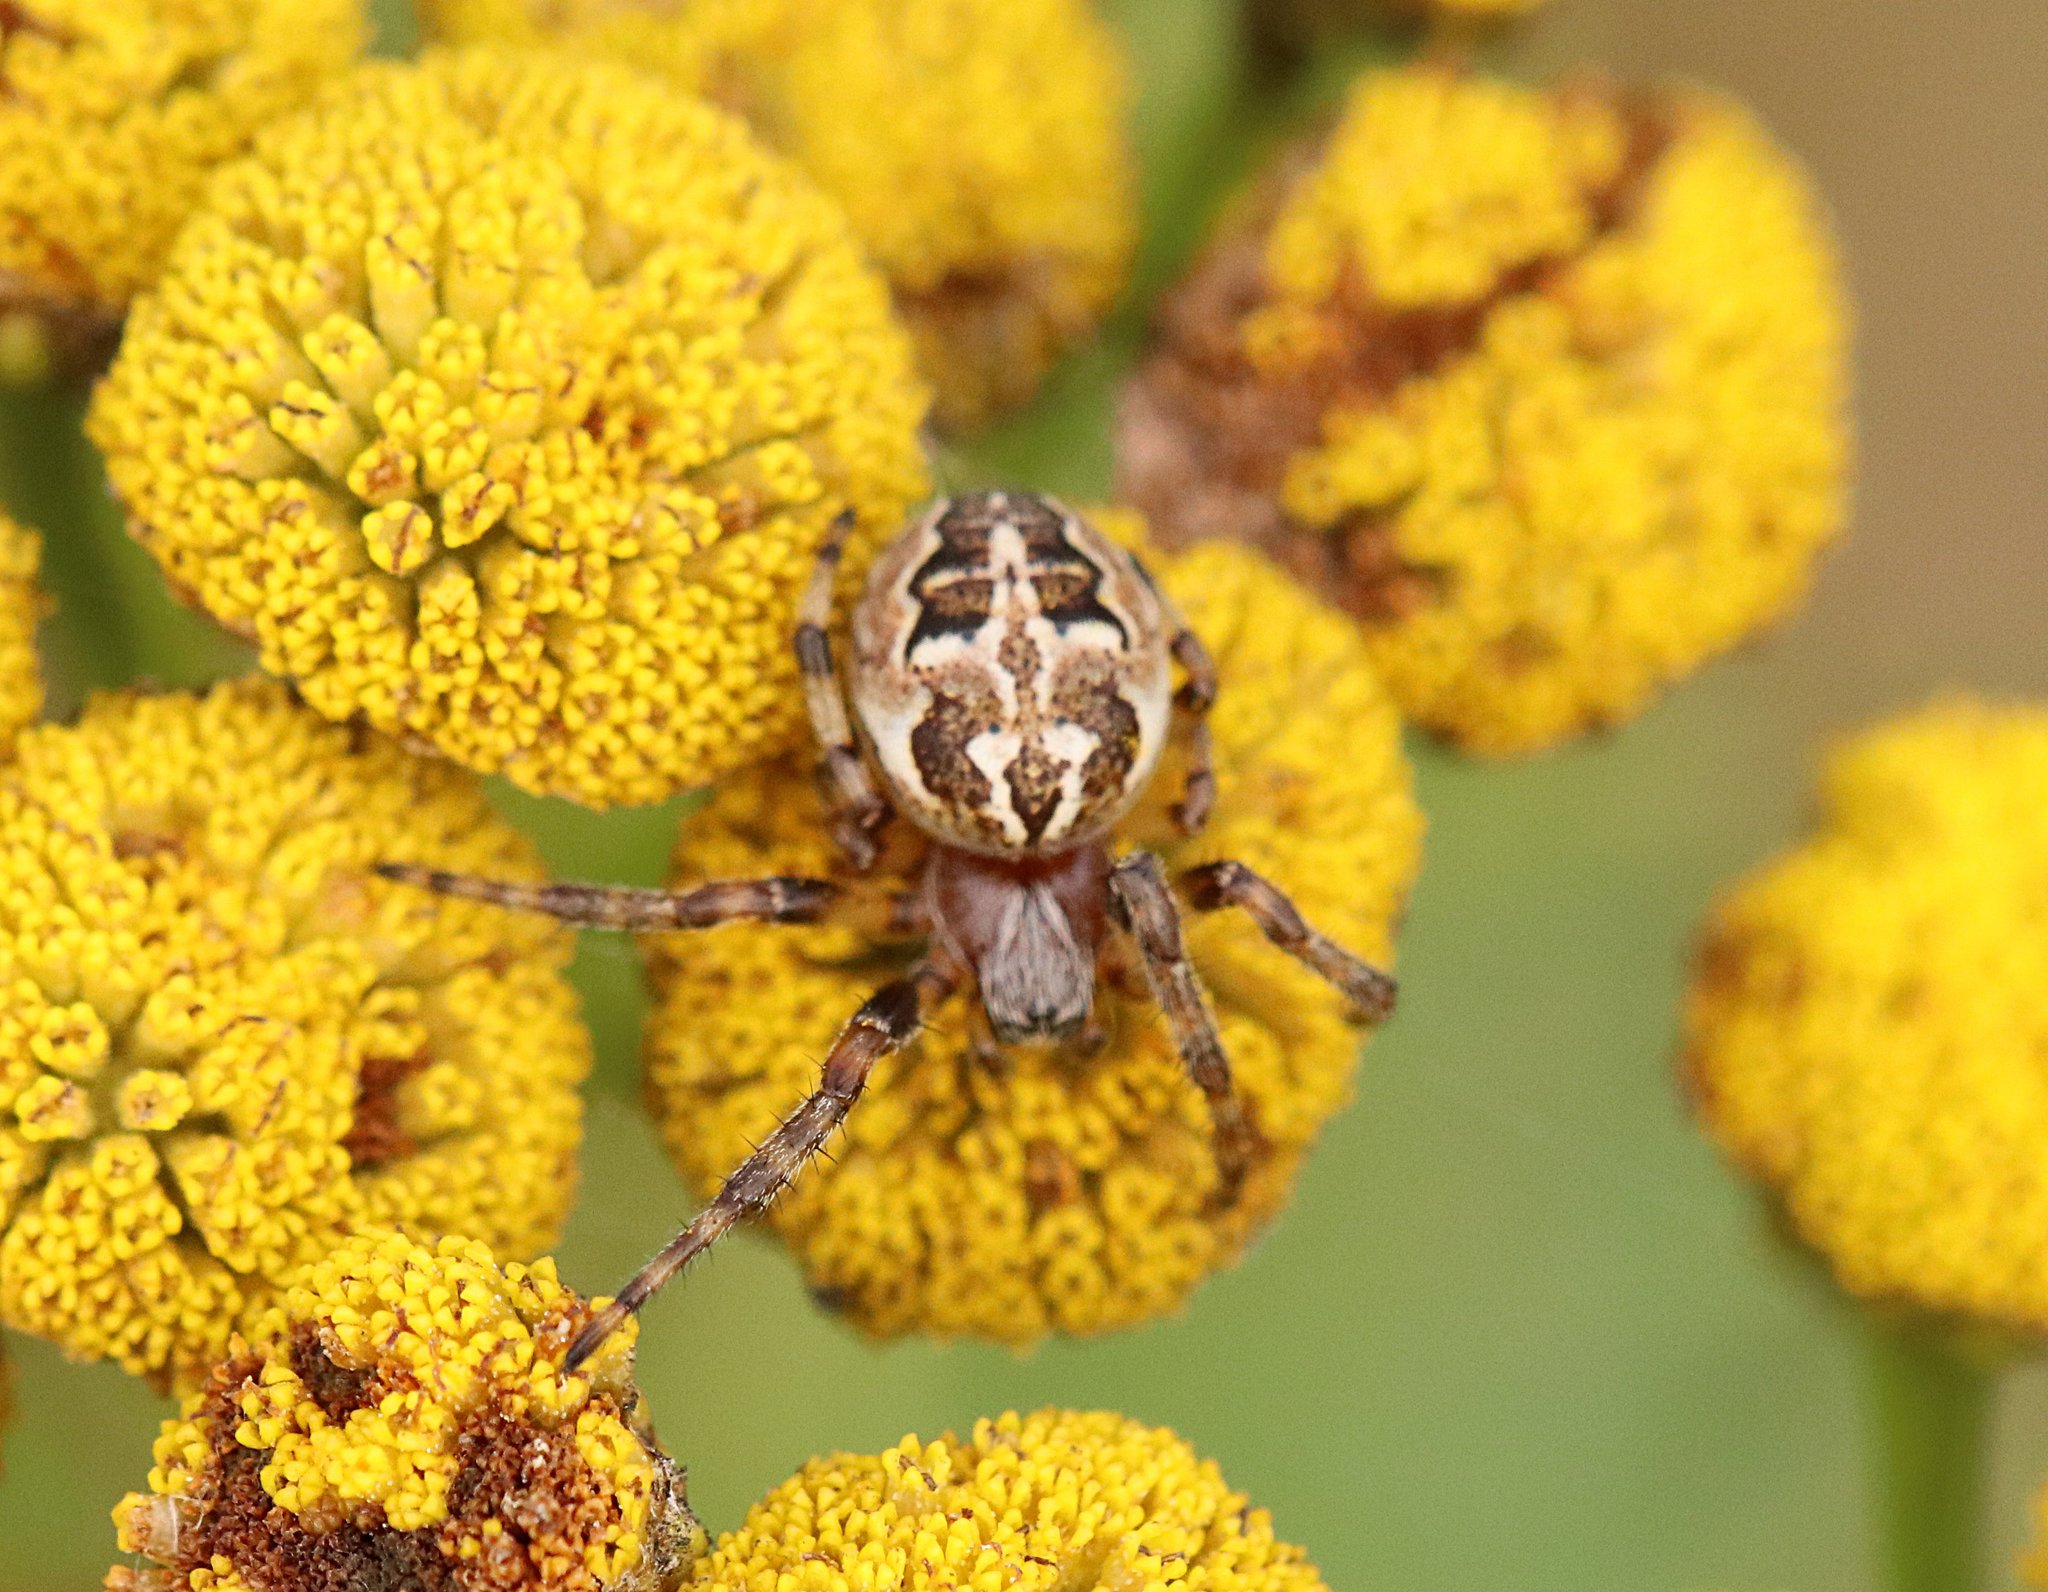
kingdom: Animalia
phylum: Arthropoda
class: Arachnida
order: Araneae
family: Araneidae
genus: Larinioides
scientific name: Larinioides cornutus
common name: Furrow orbweaver
